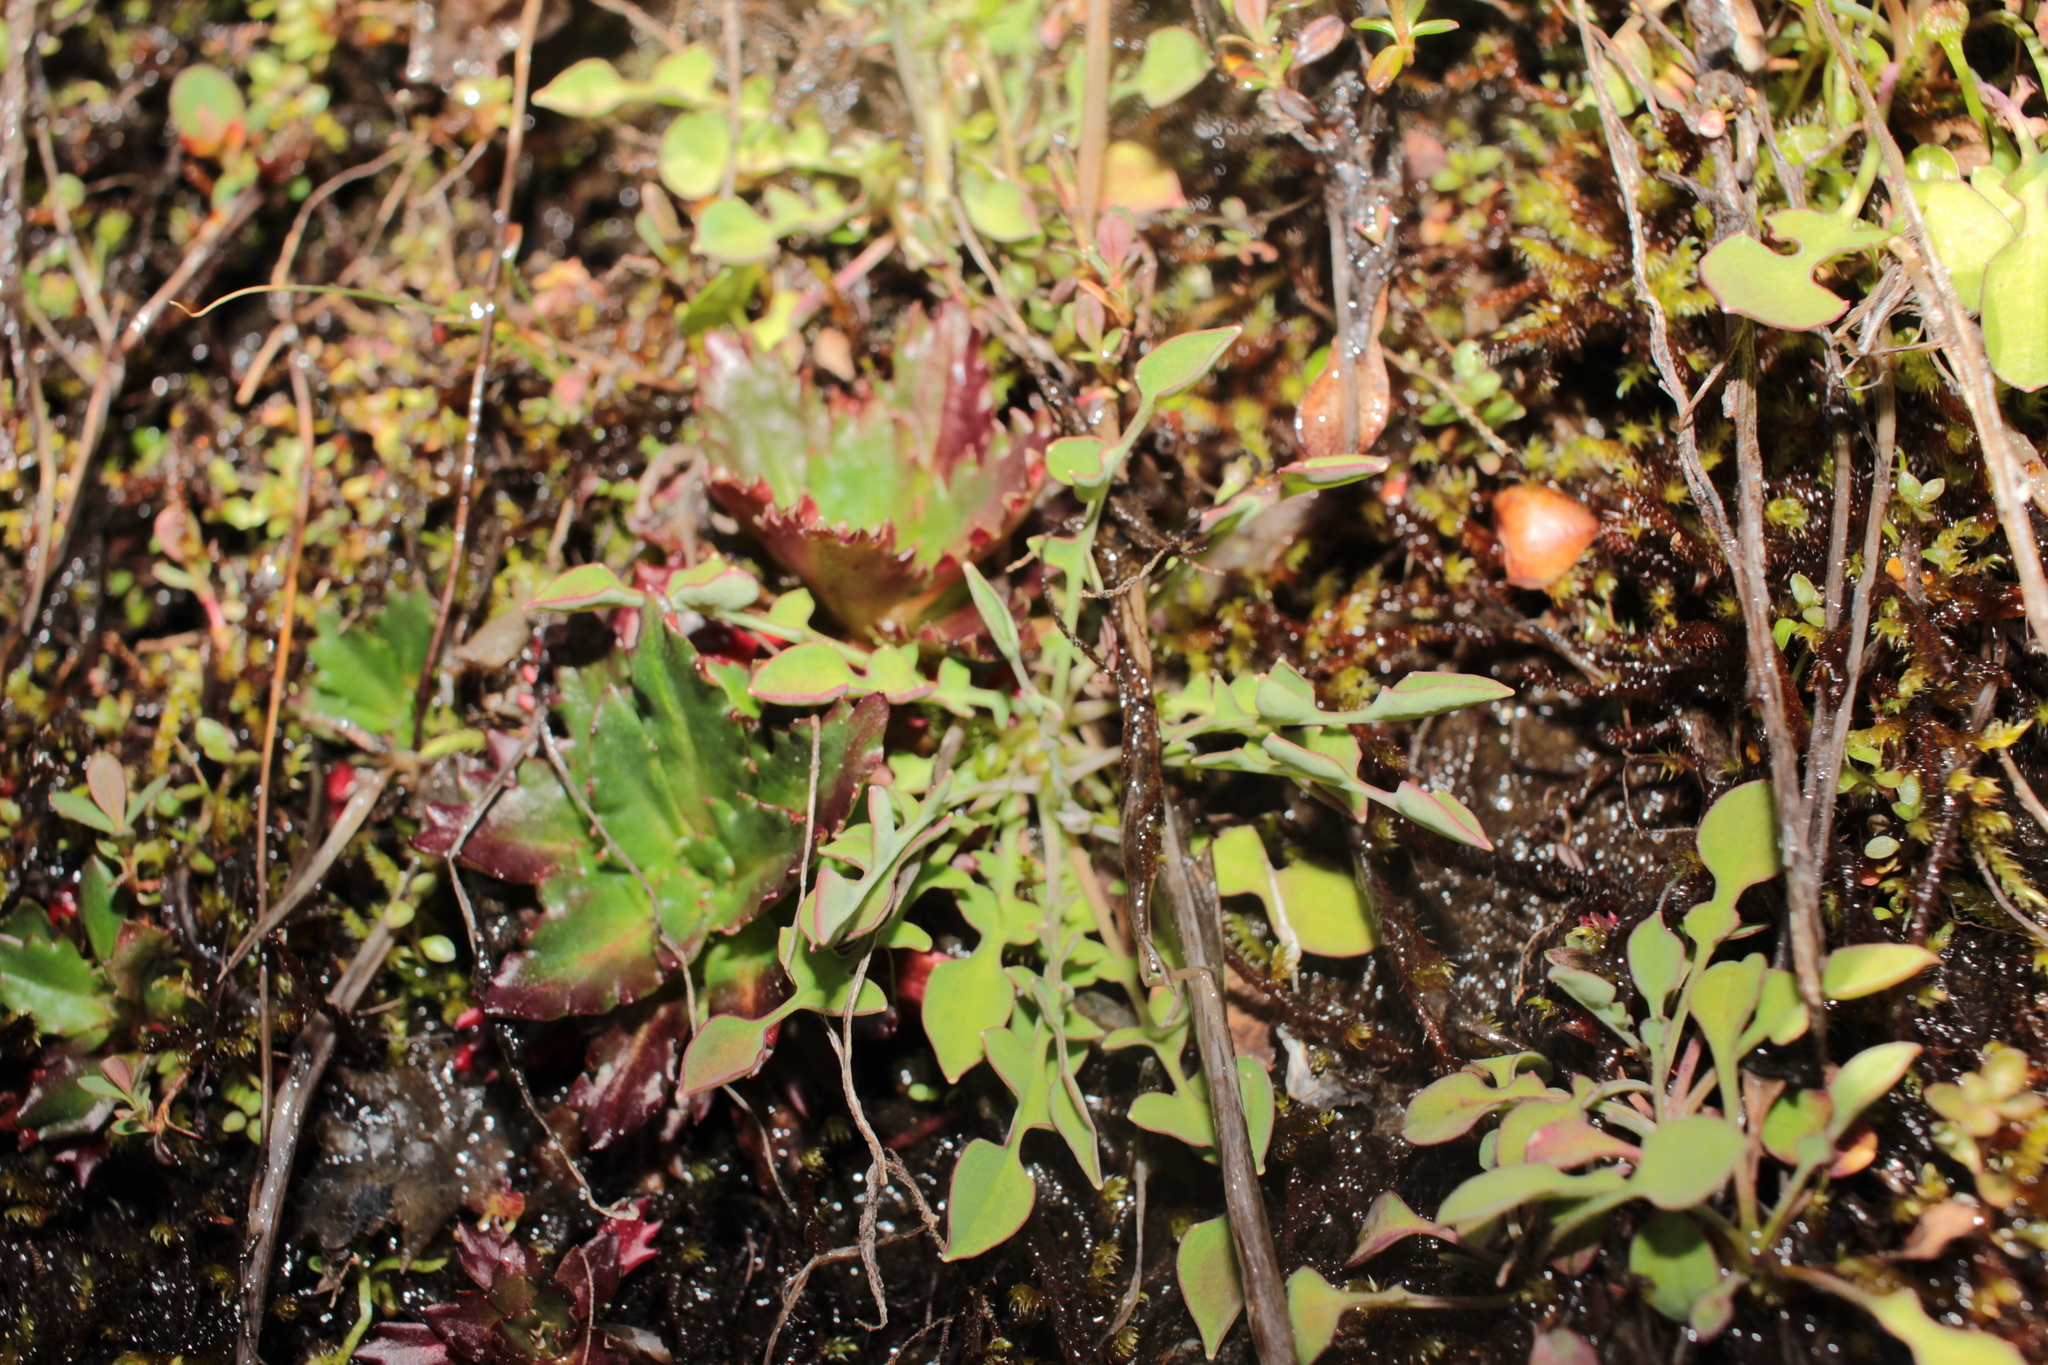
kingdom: Plantae
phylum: Tracheophyta
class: Magnoliopsida
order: Saxifragales
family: Saxifragaceae
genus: Micranthes
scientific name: Micranthes petiolaris
